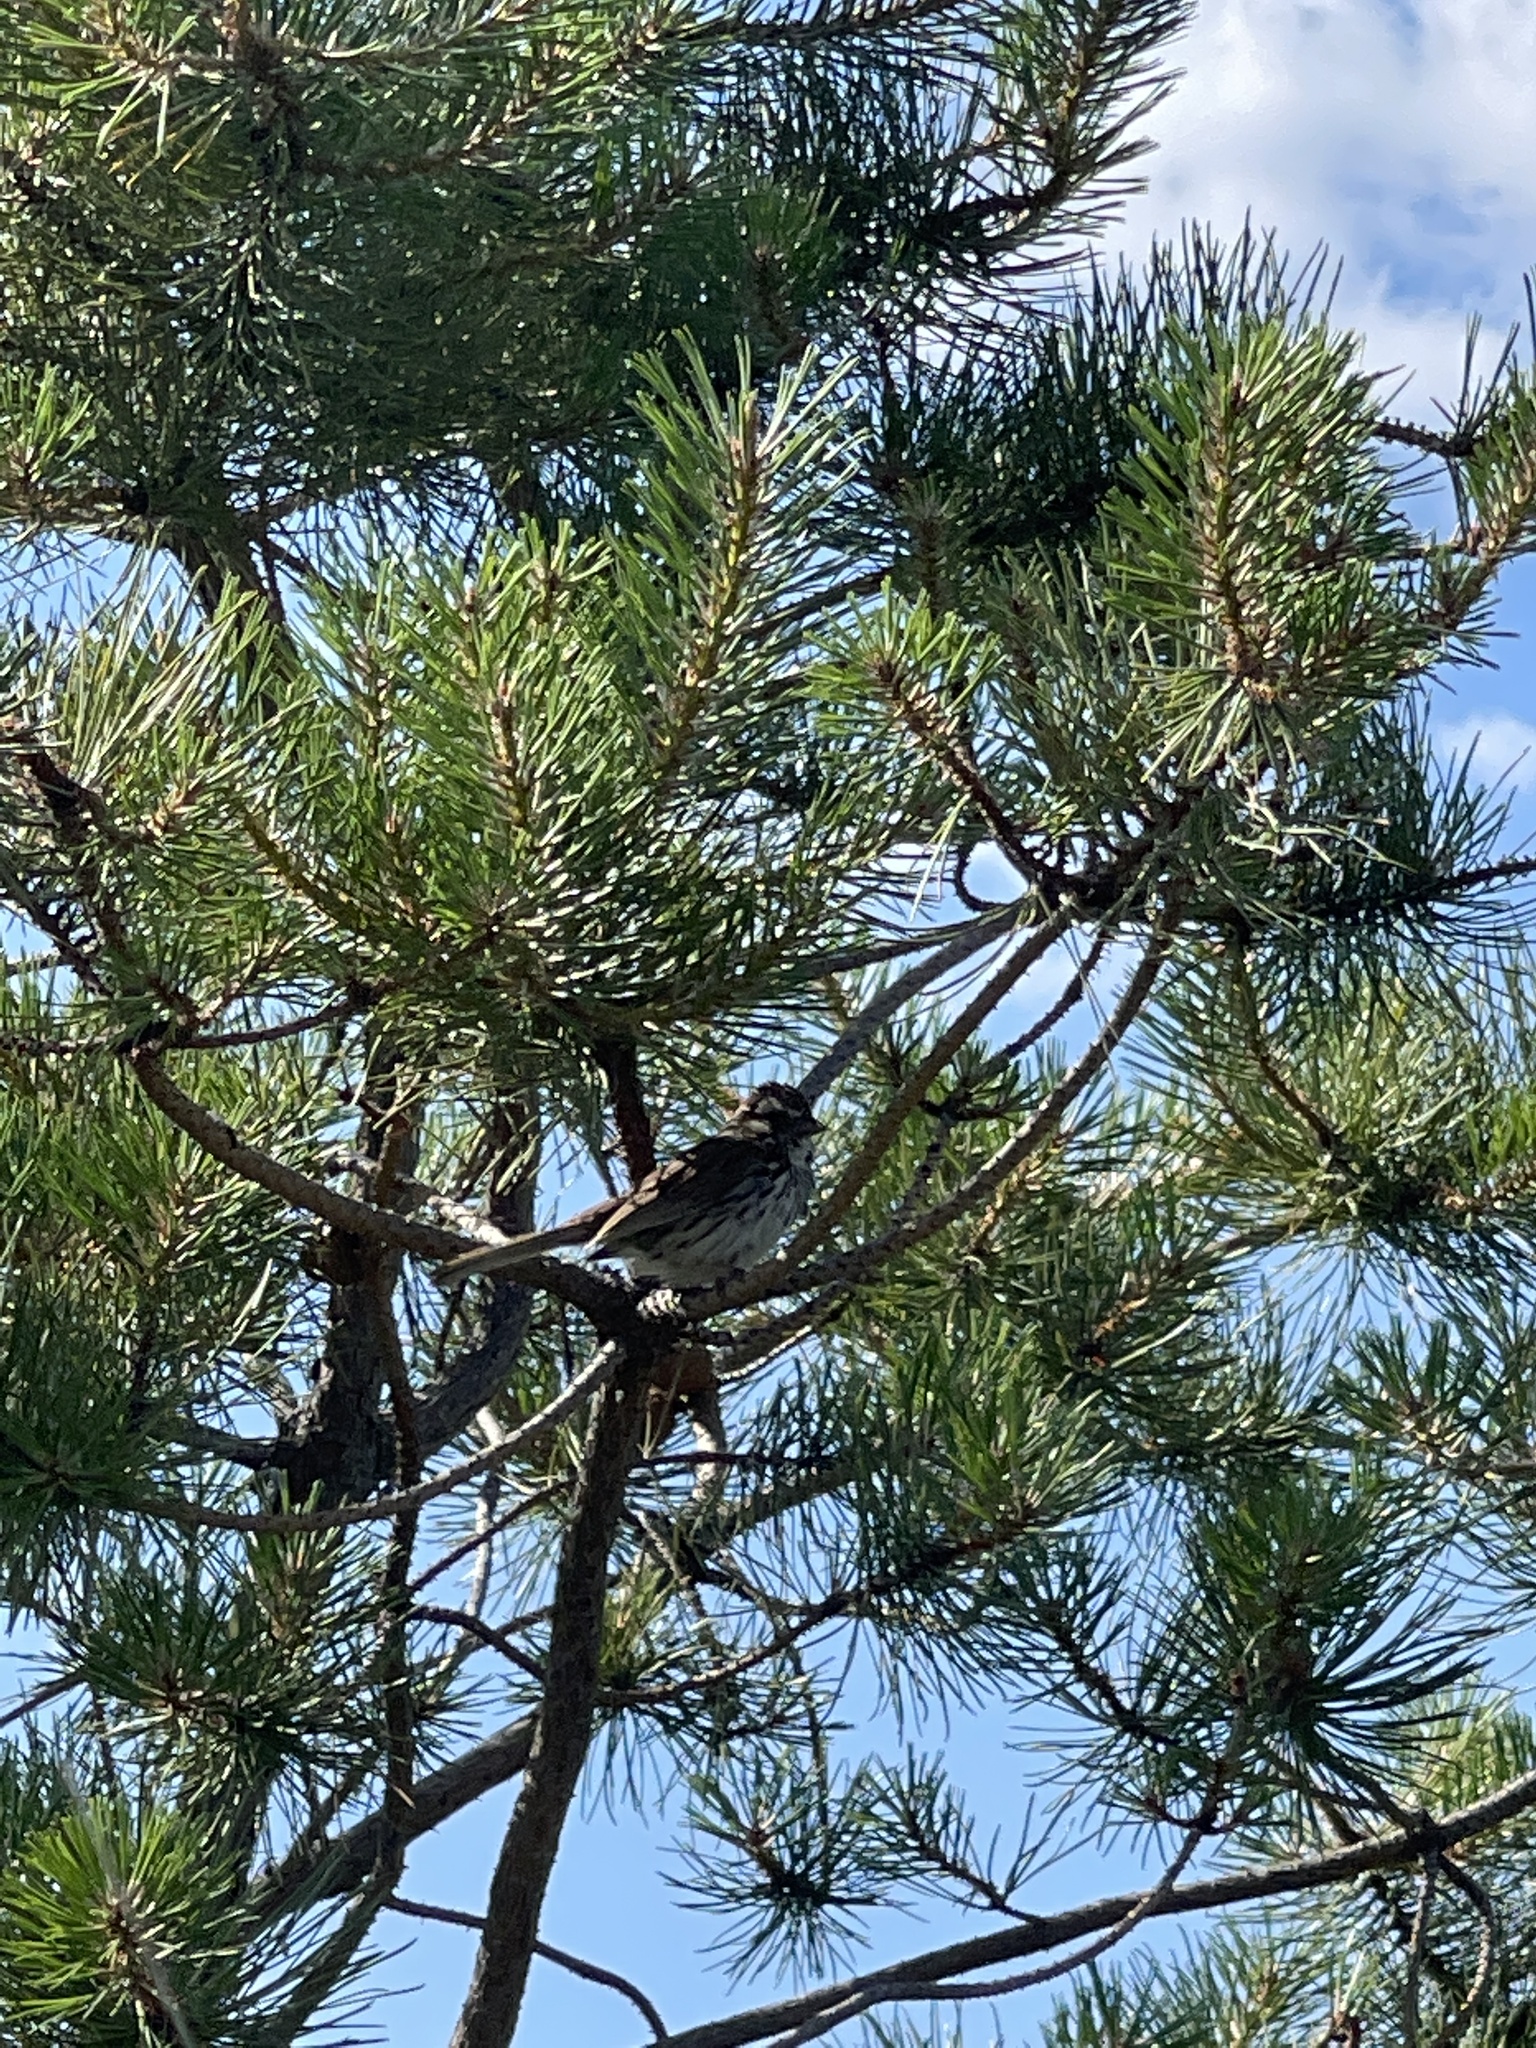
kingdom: Animalia
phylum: Chordata
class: Aves
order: Passeriformes
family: Passerellidae
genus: Melospiza
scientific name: Melospiza melodia
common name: Song sparrow
